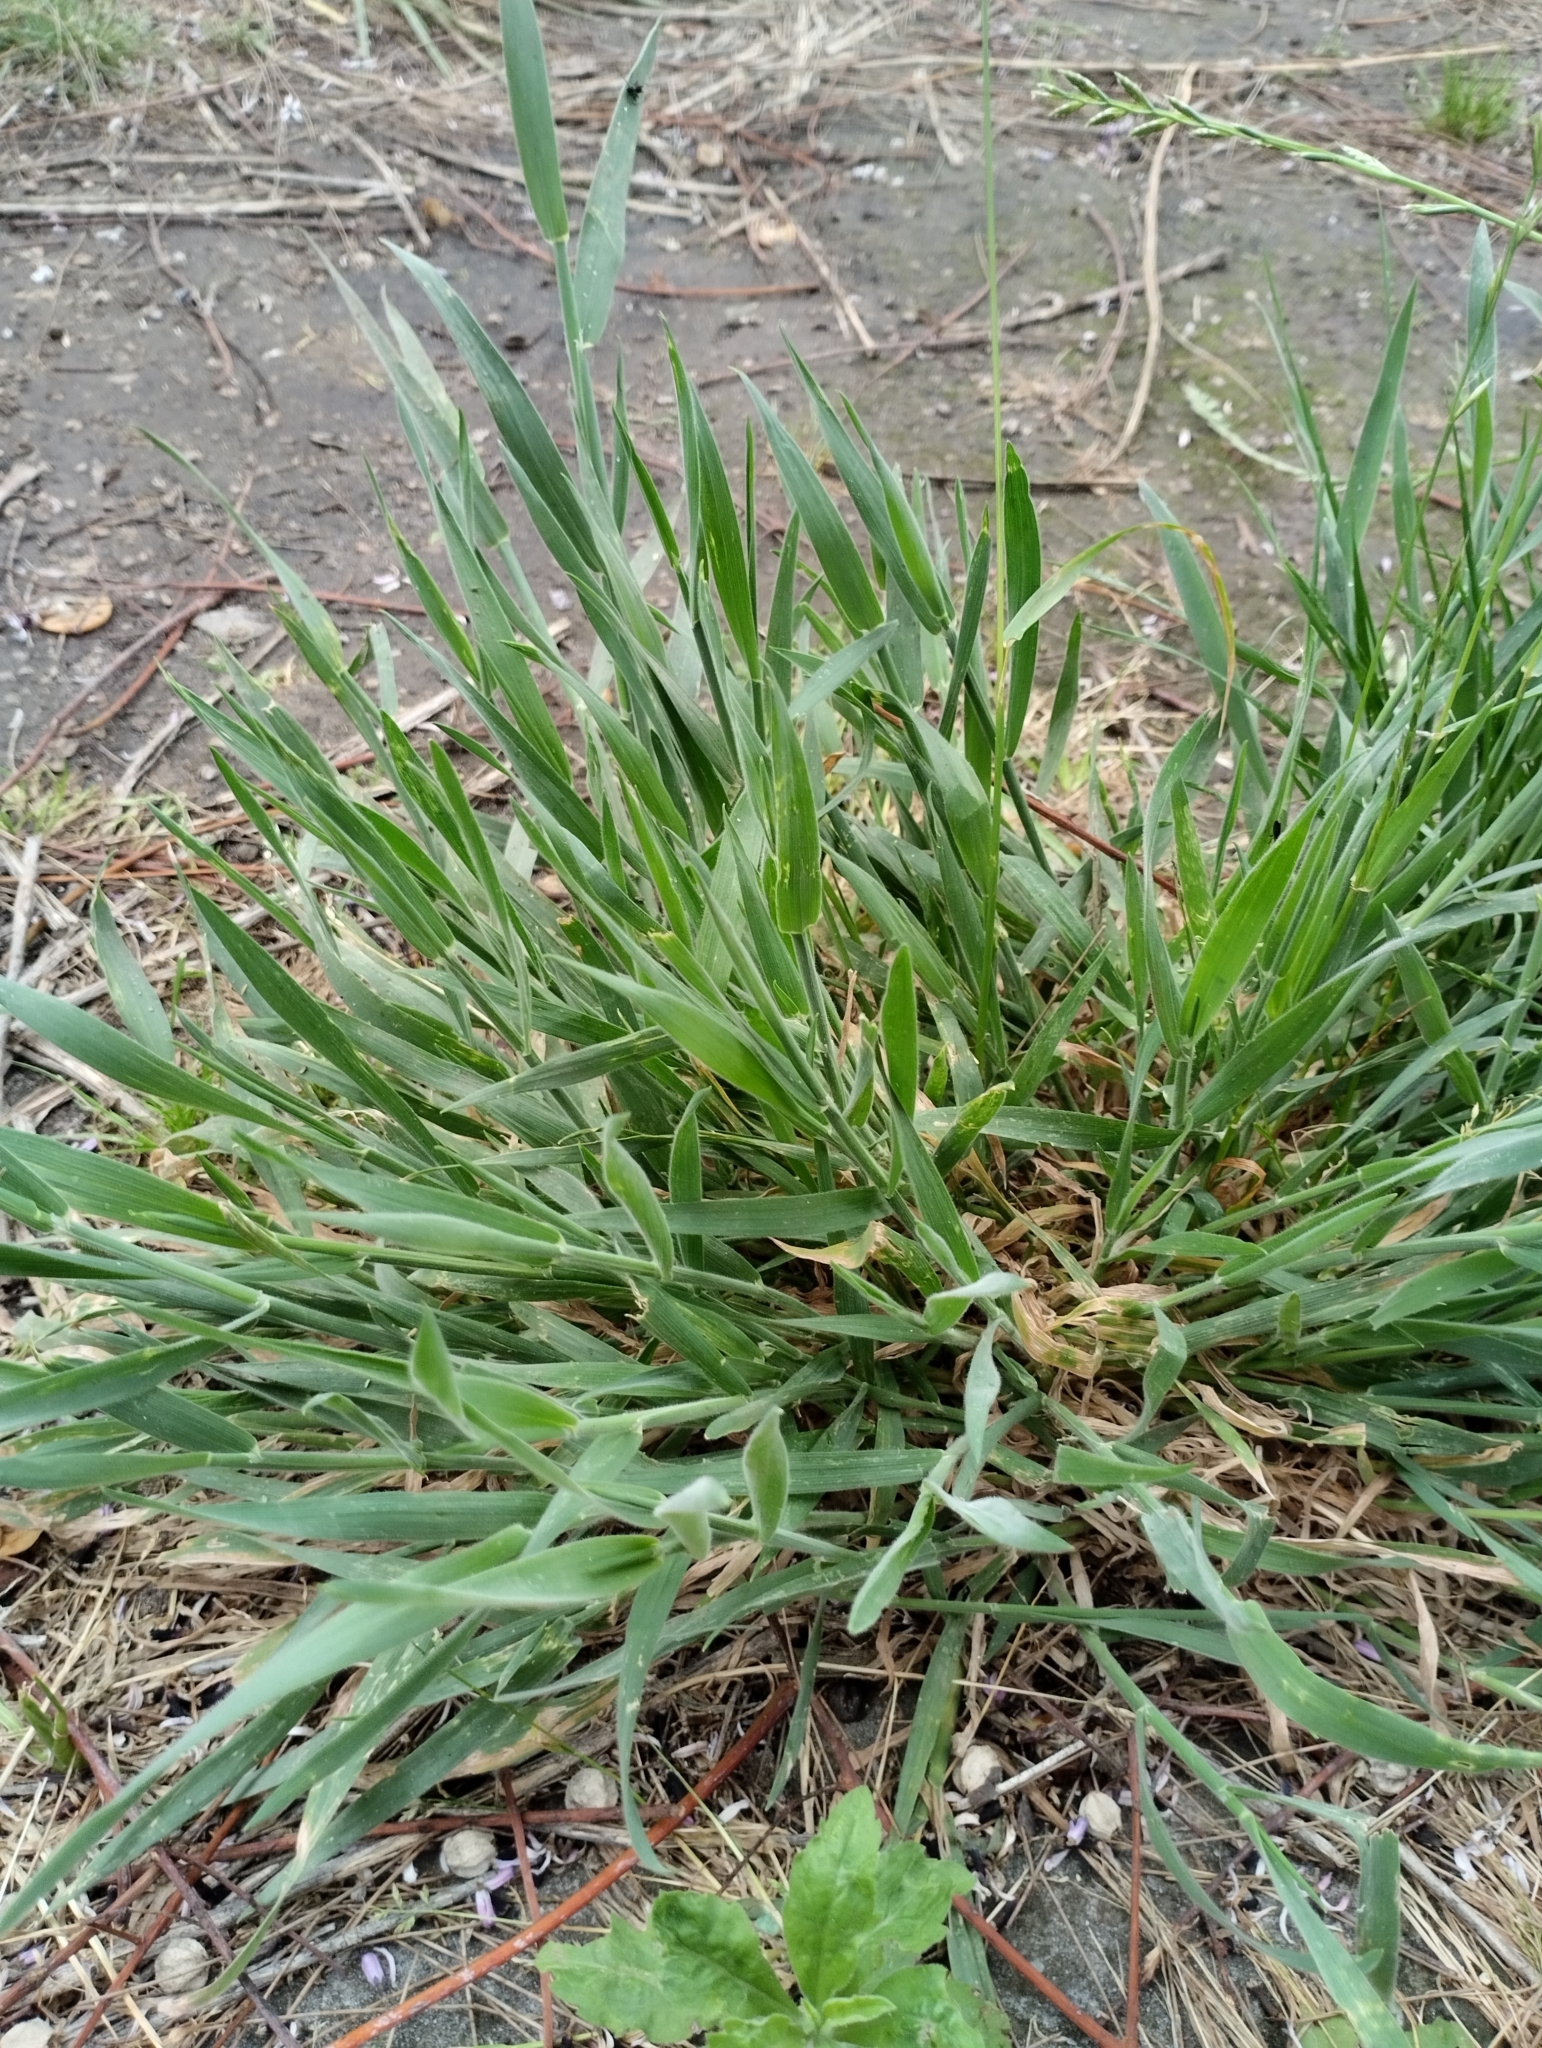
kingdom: Plantae
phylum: Tracheophyta
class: Liliopsida
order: Poales
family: Poaceae
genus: Holcus
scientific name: Holcus lanatus
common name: Yorkshire-fog
